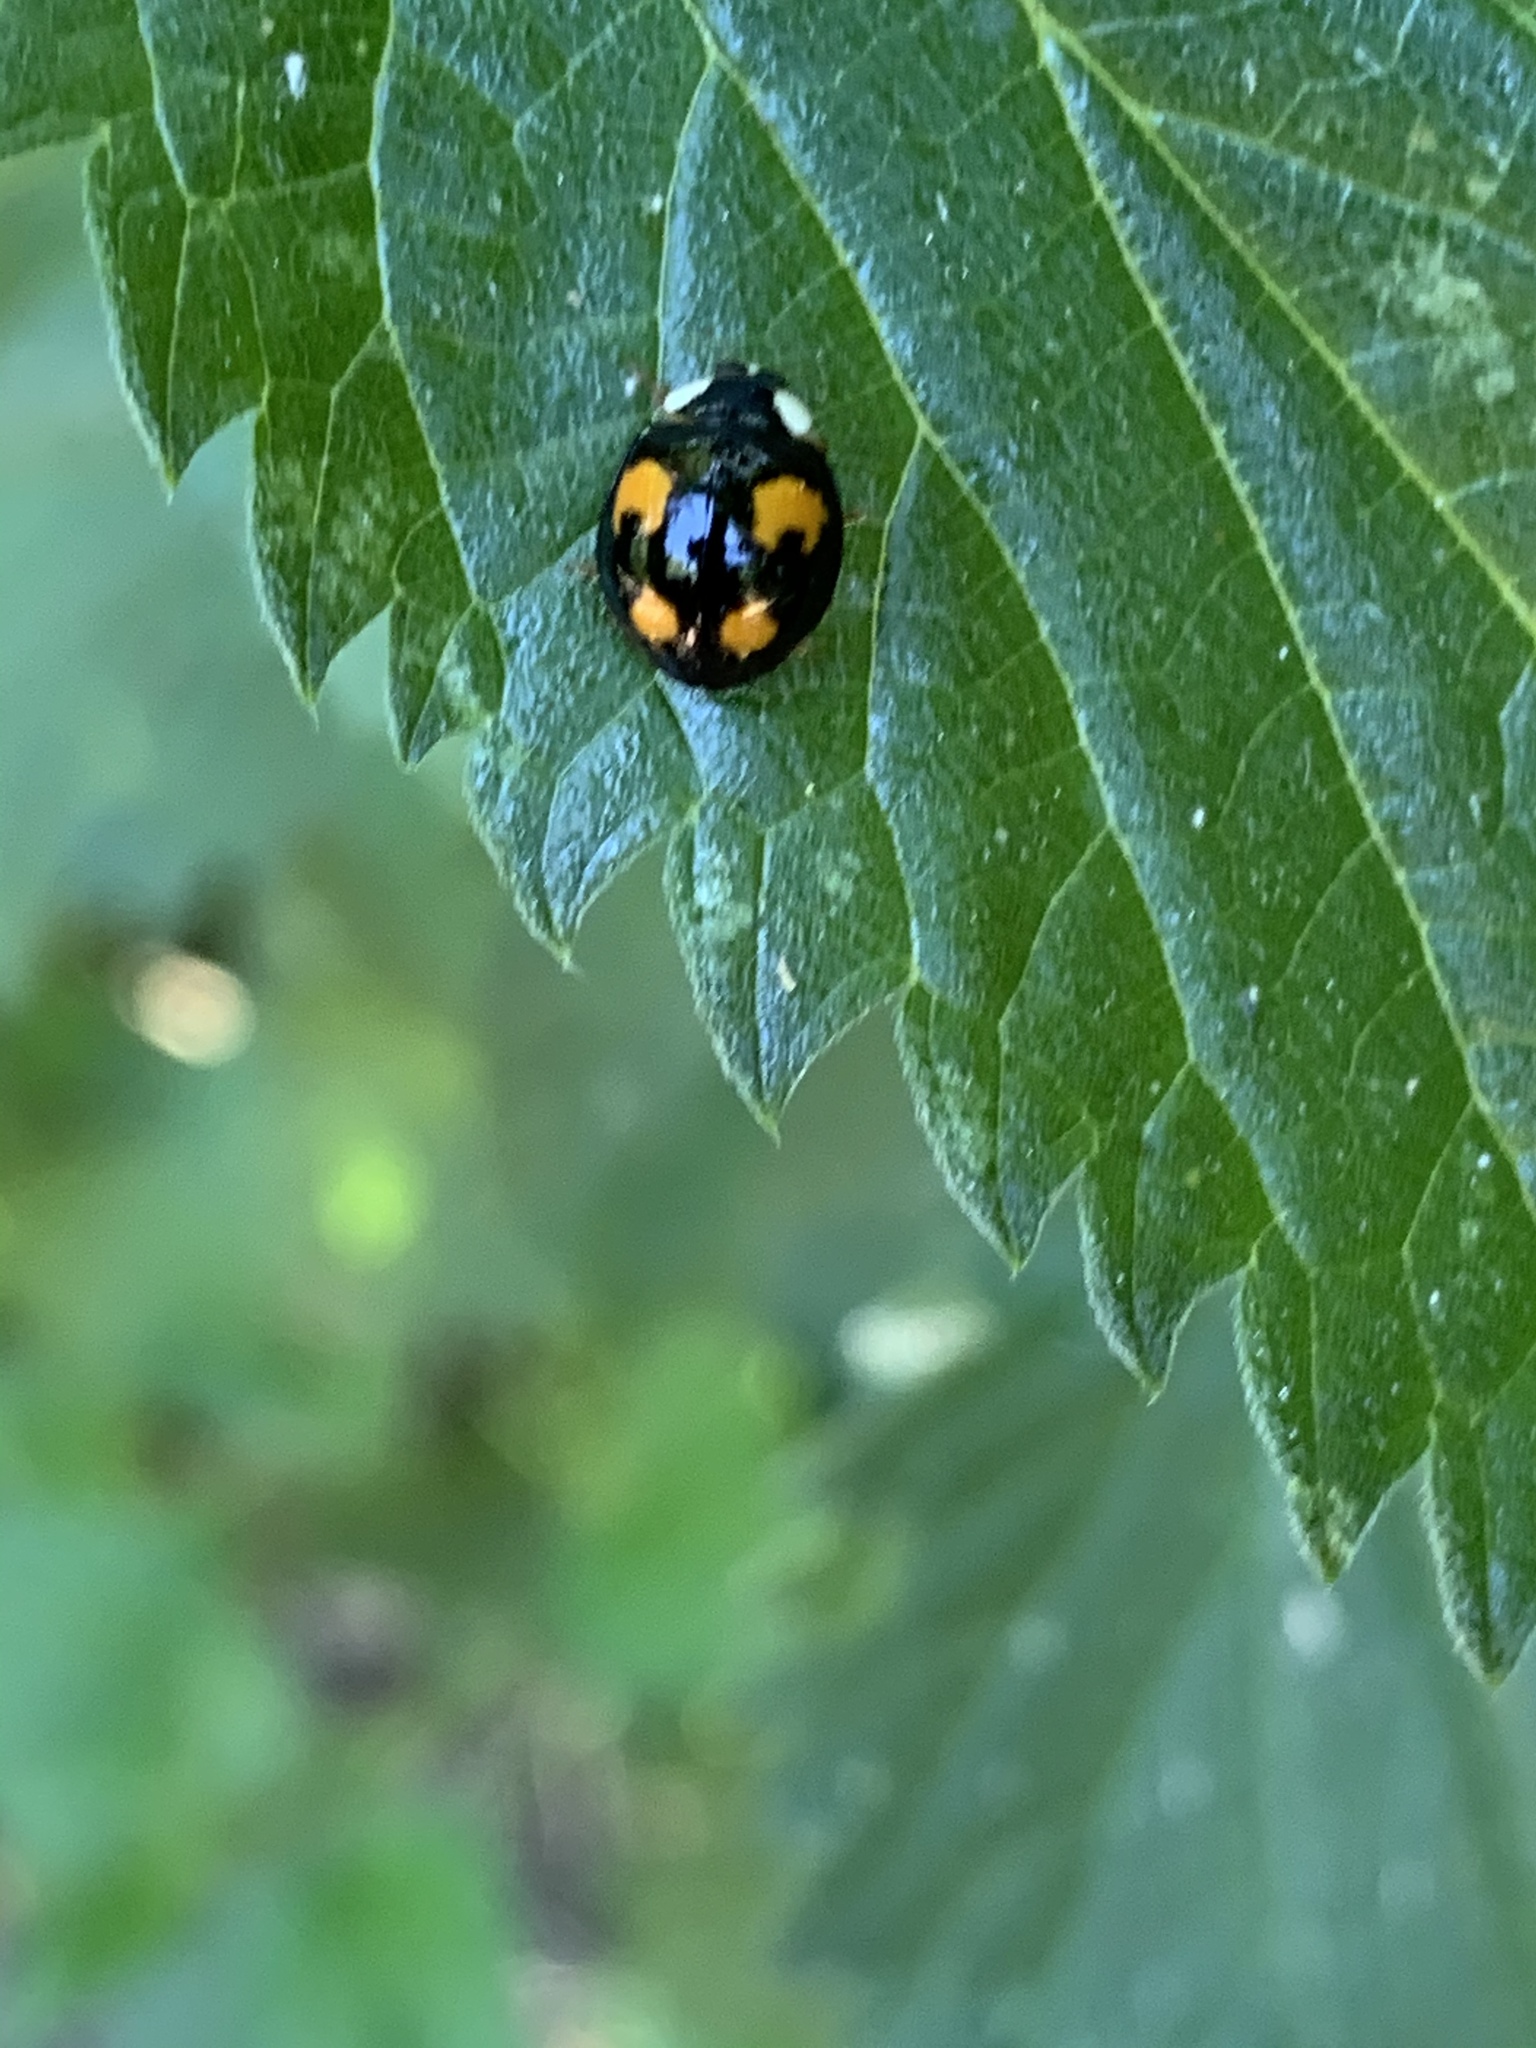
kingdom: Animalia
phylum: Arthropoda
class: Insecta
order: Coleoptera
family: Coccinellidae
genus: Harmonia
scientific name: Harmonia axyridis
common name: Harlequin ladybird
